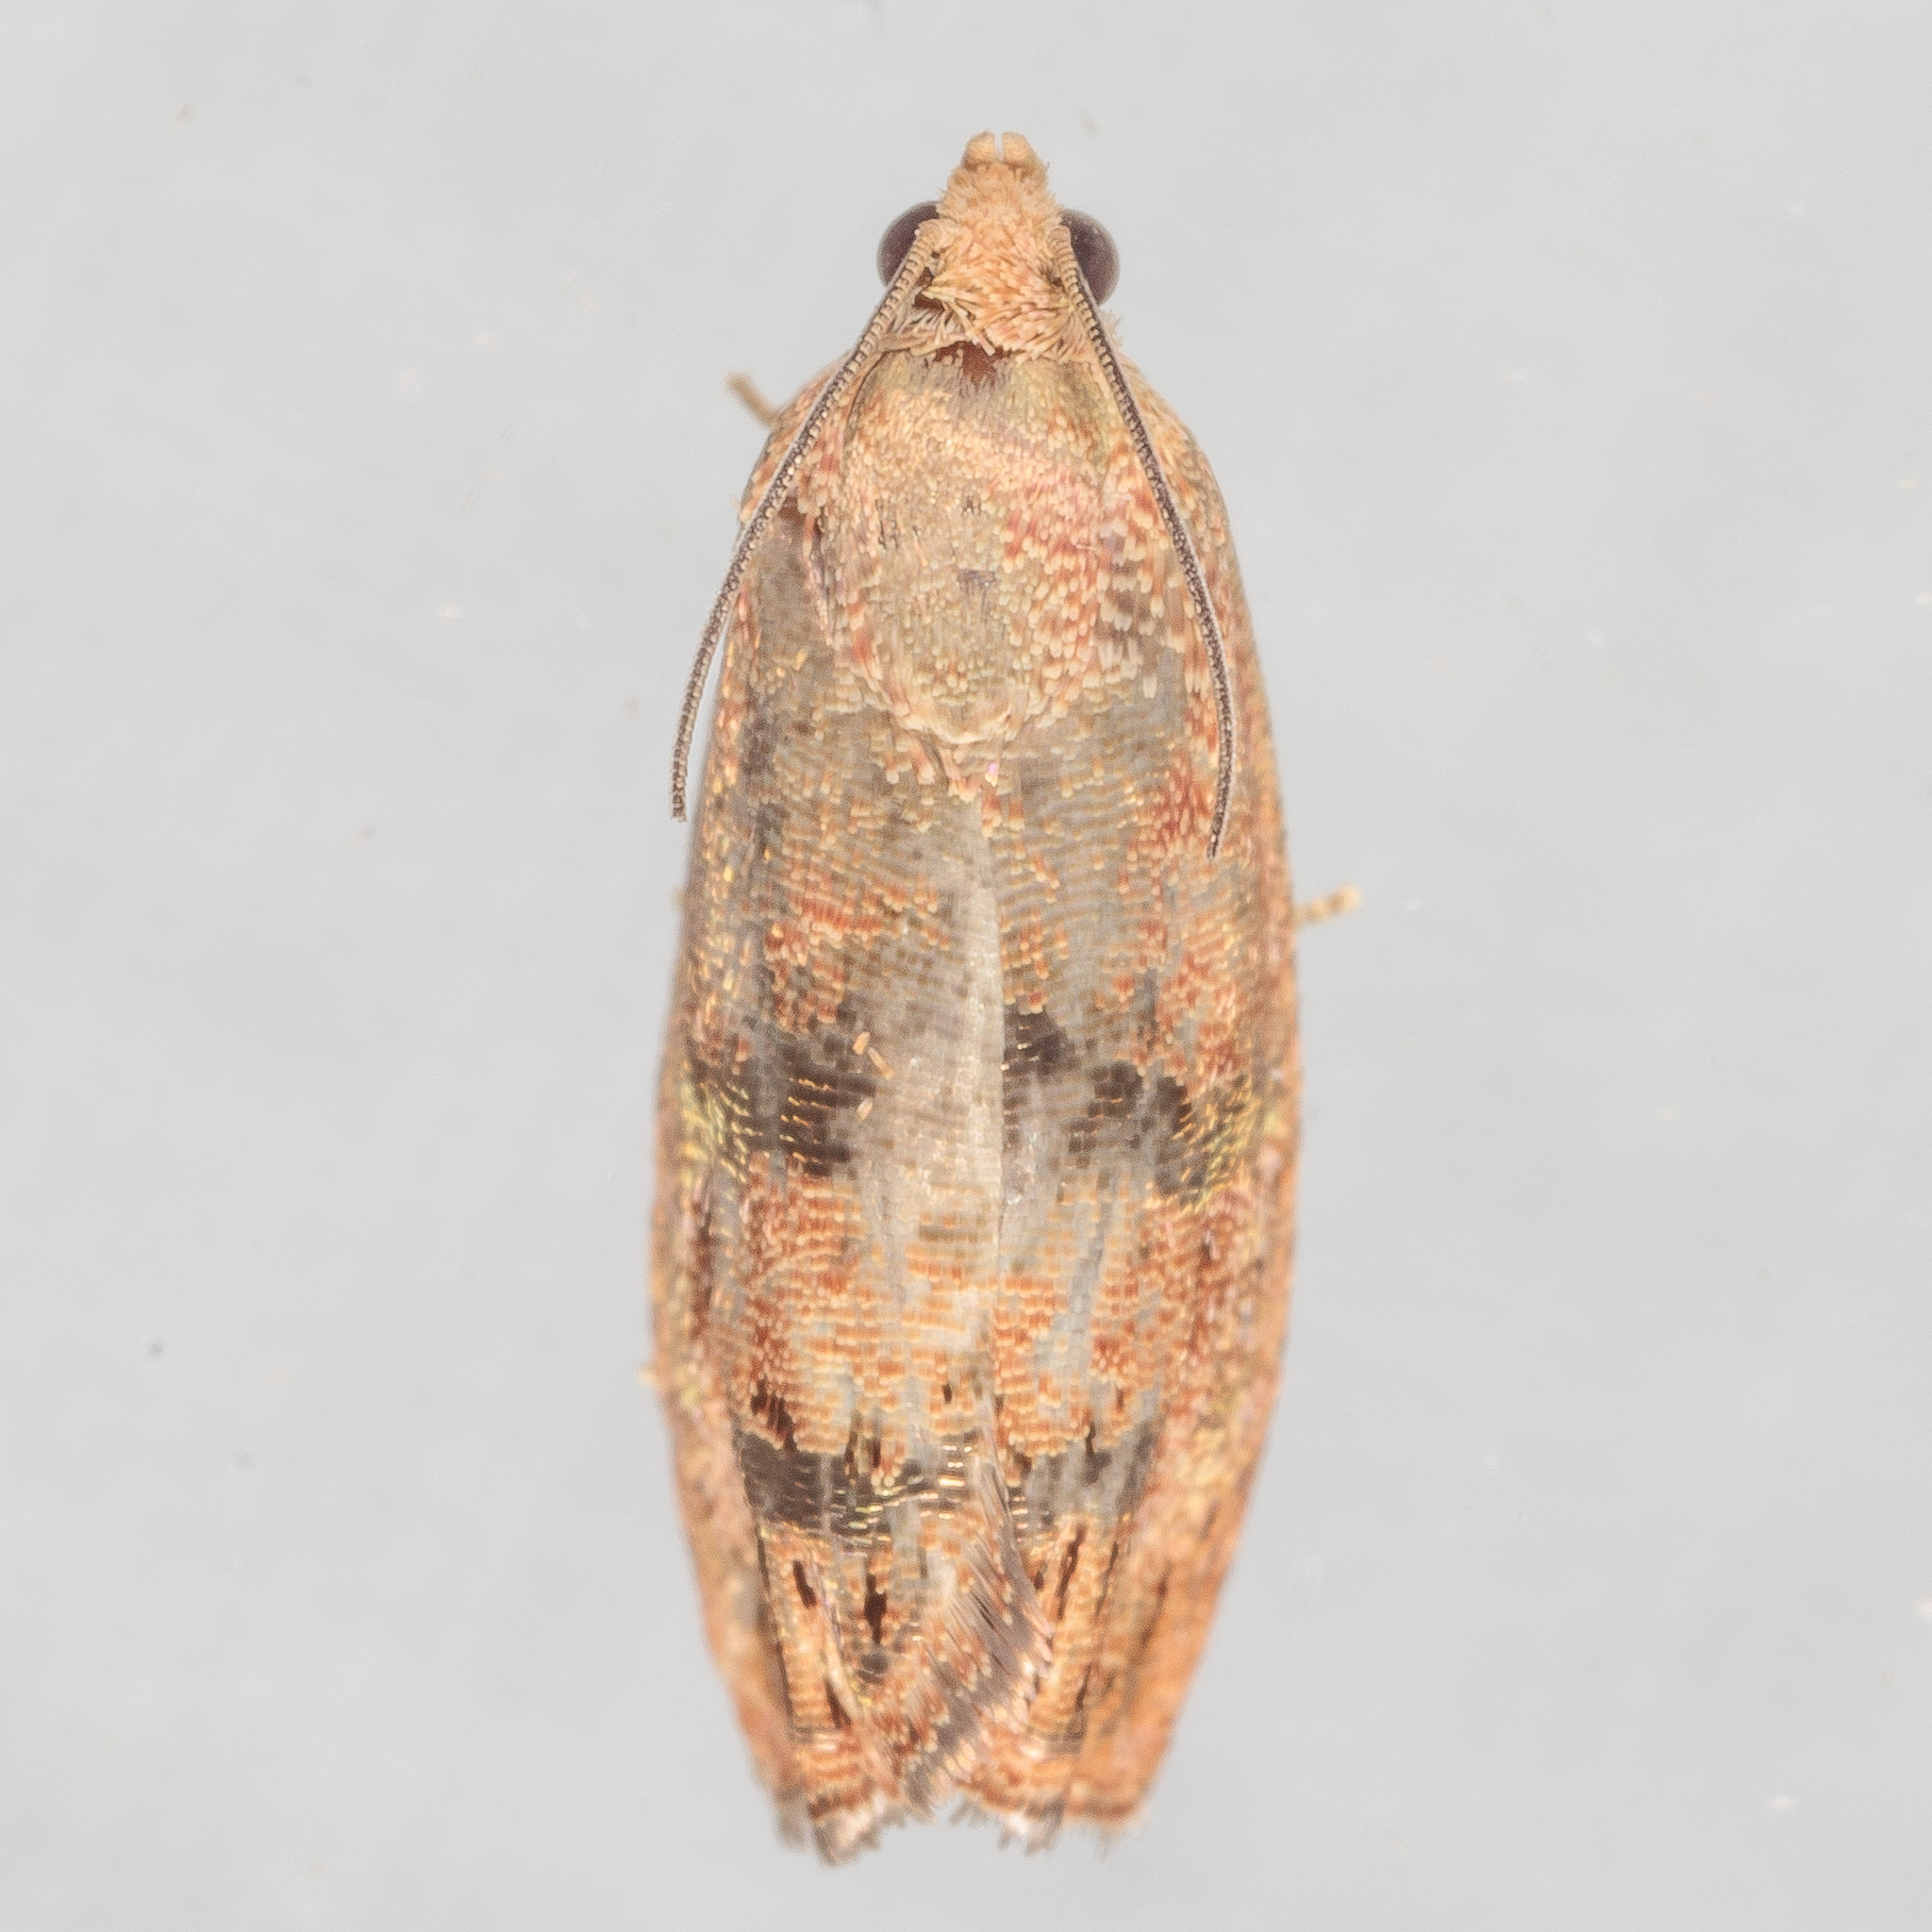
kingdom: Animalia
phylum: Arthropoda
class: Insecta
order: Lepidoptera
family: Tortricidae
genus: Cydia
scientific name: Cydia latiferreana
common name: Filbertworm moth
